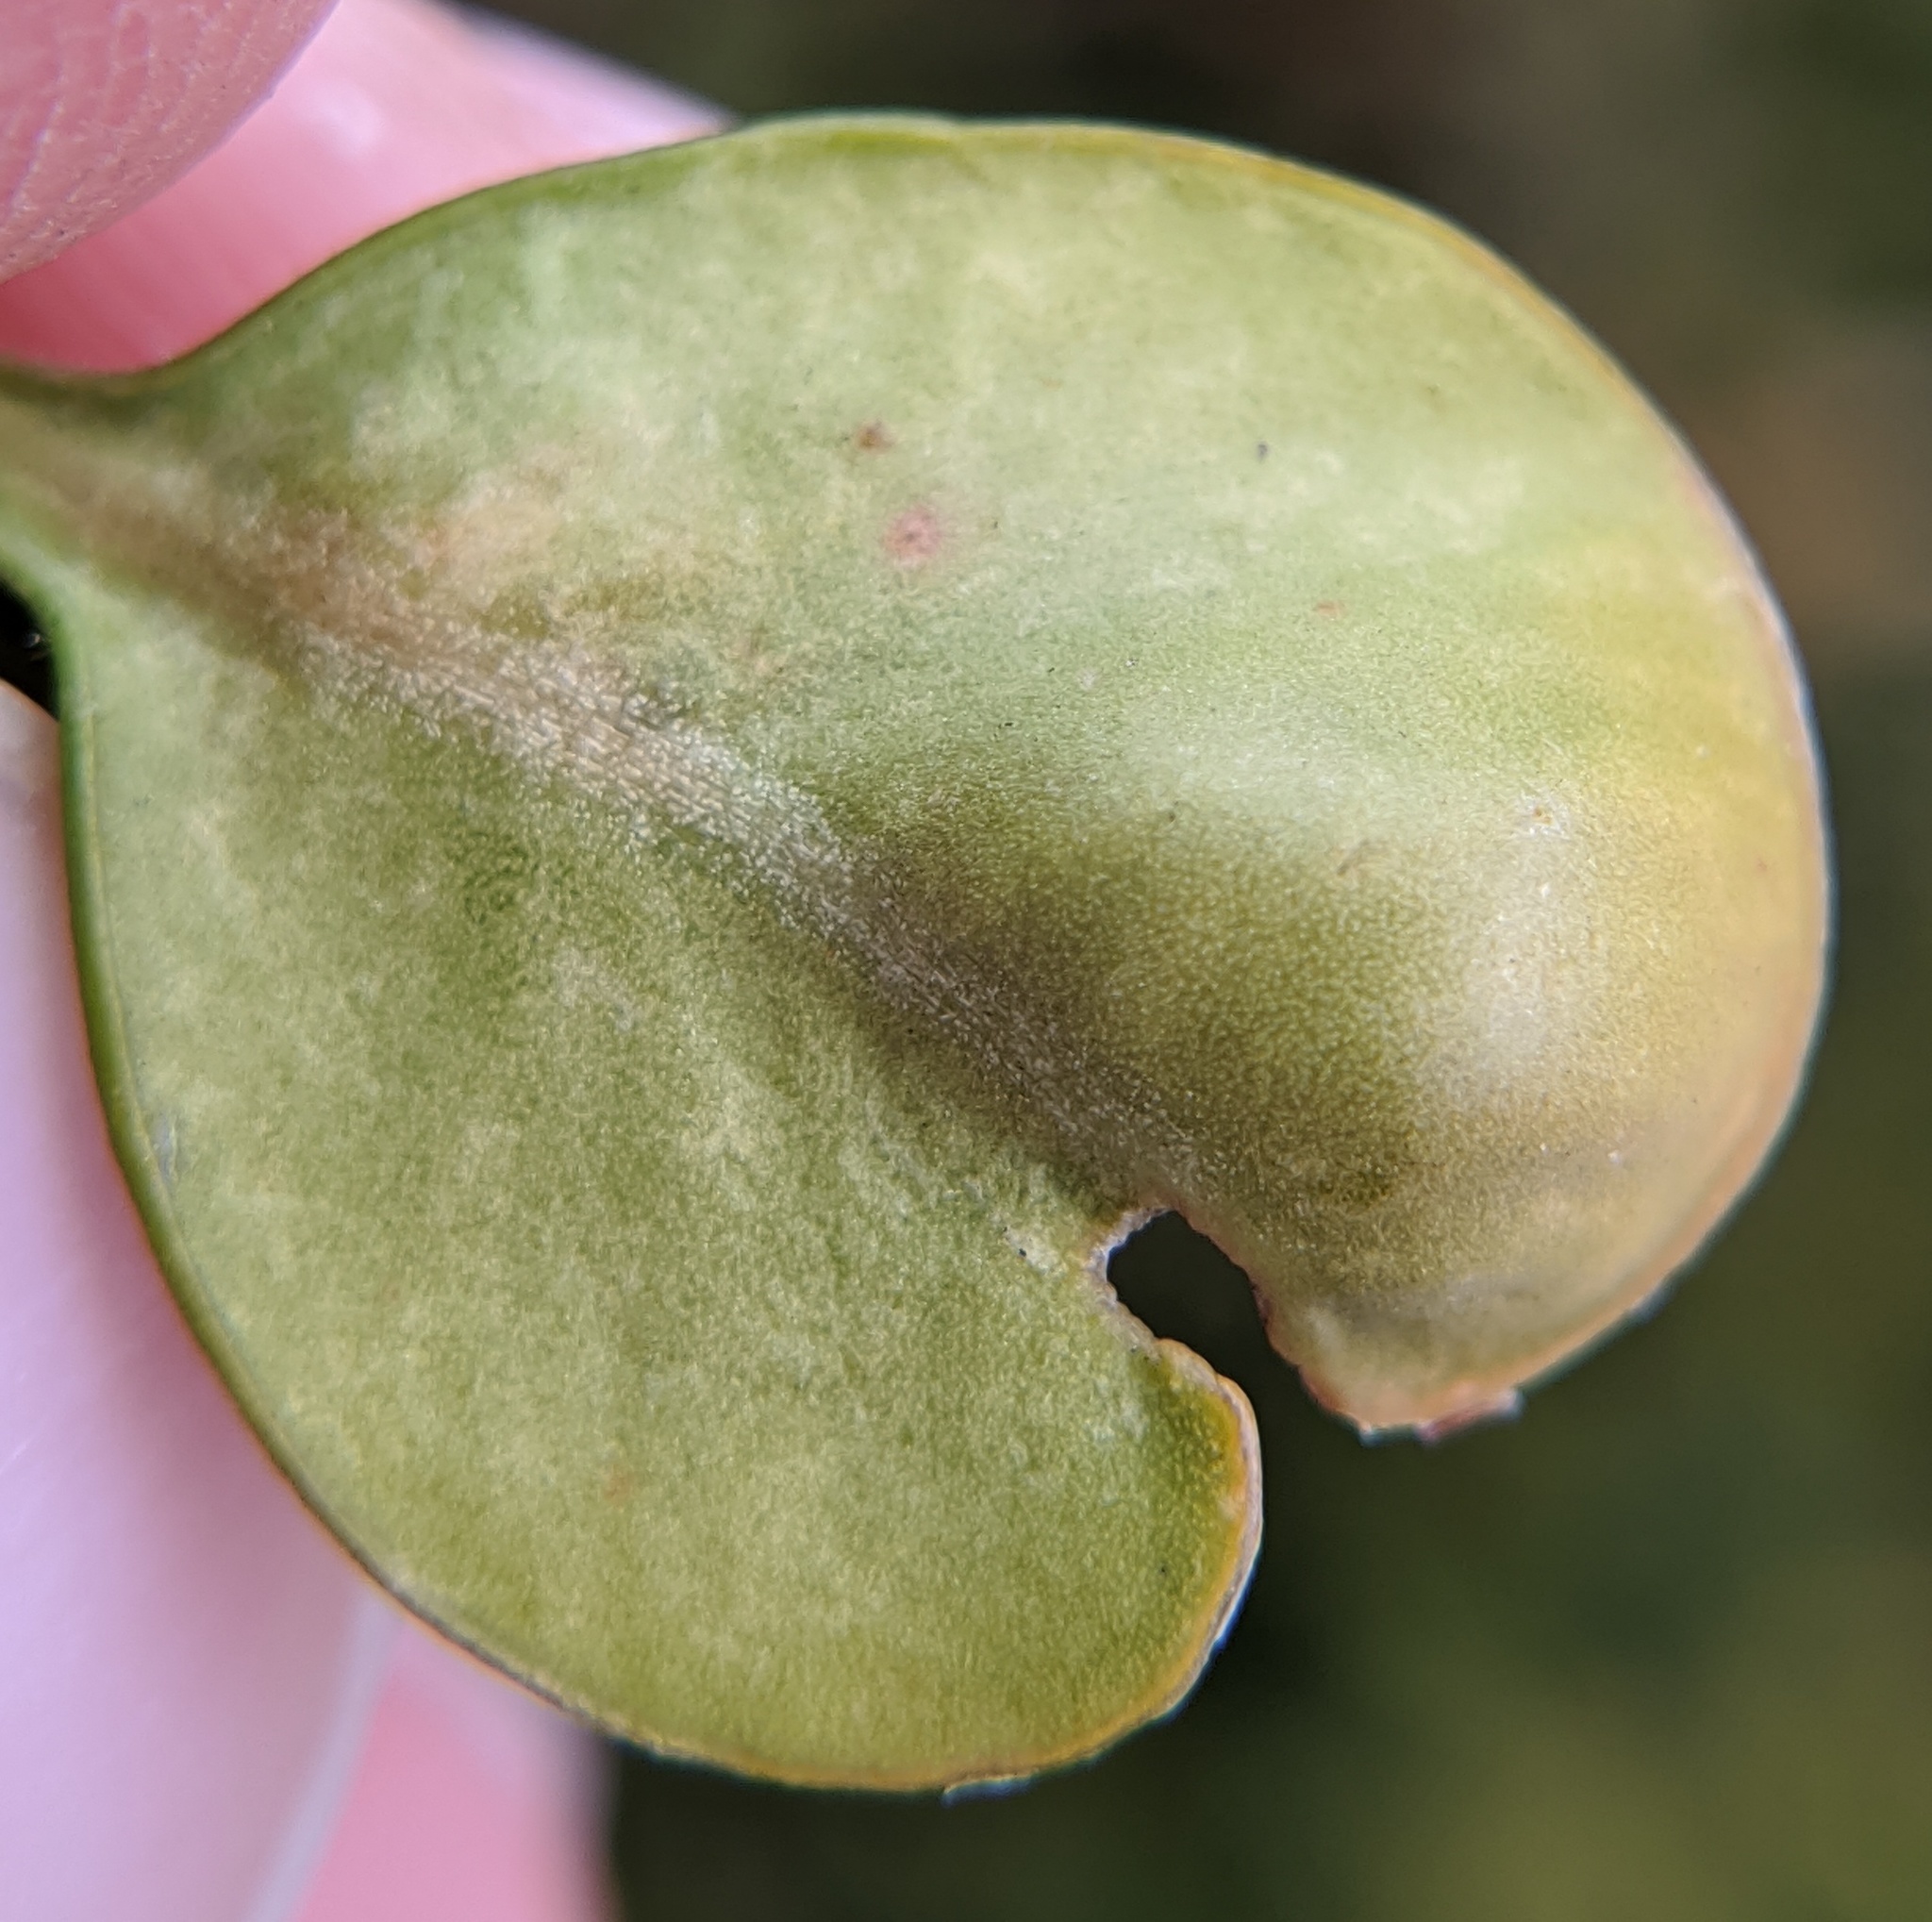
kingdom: Animalia
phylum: Arthropoda
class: Insecta
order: Hemiptera
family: Psyllidae
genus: Psylla
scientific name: Psylla buxi
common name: Boxwood psyllid
